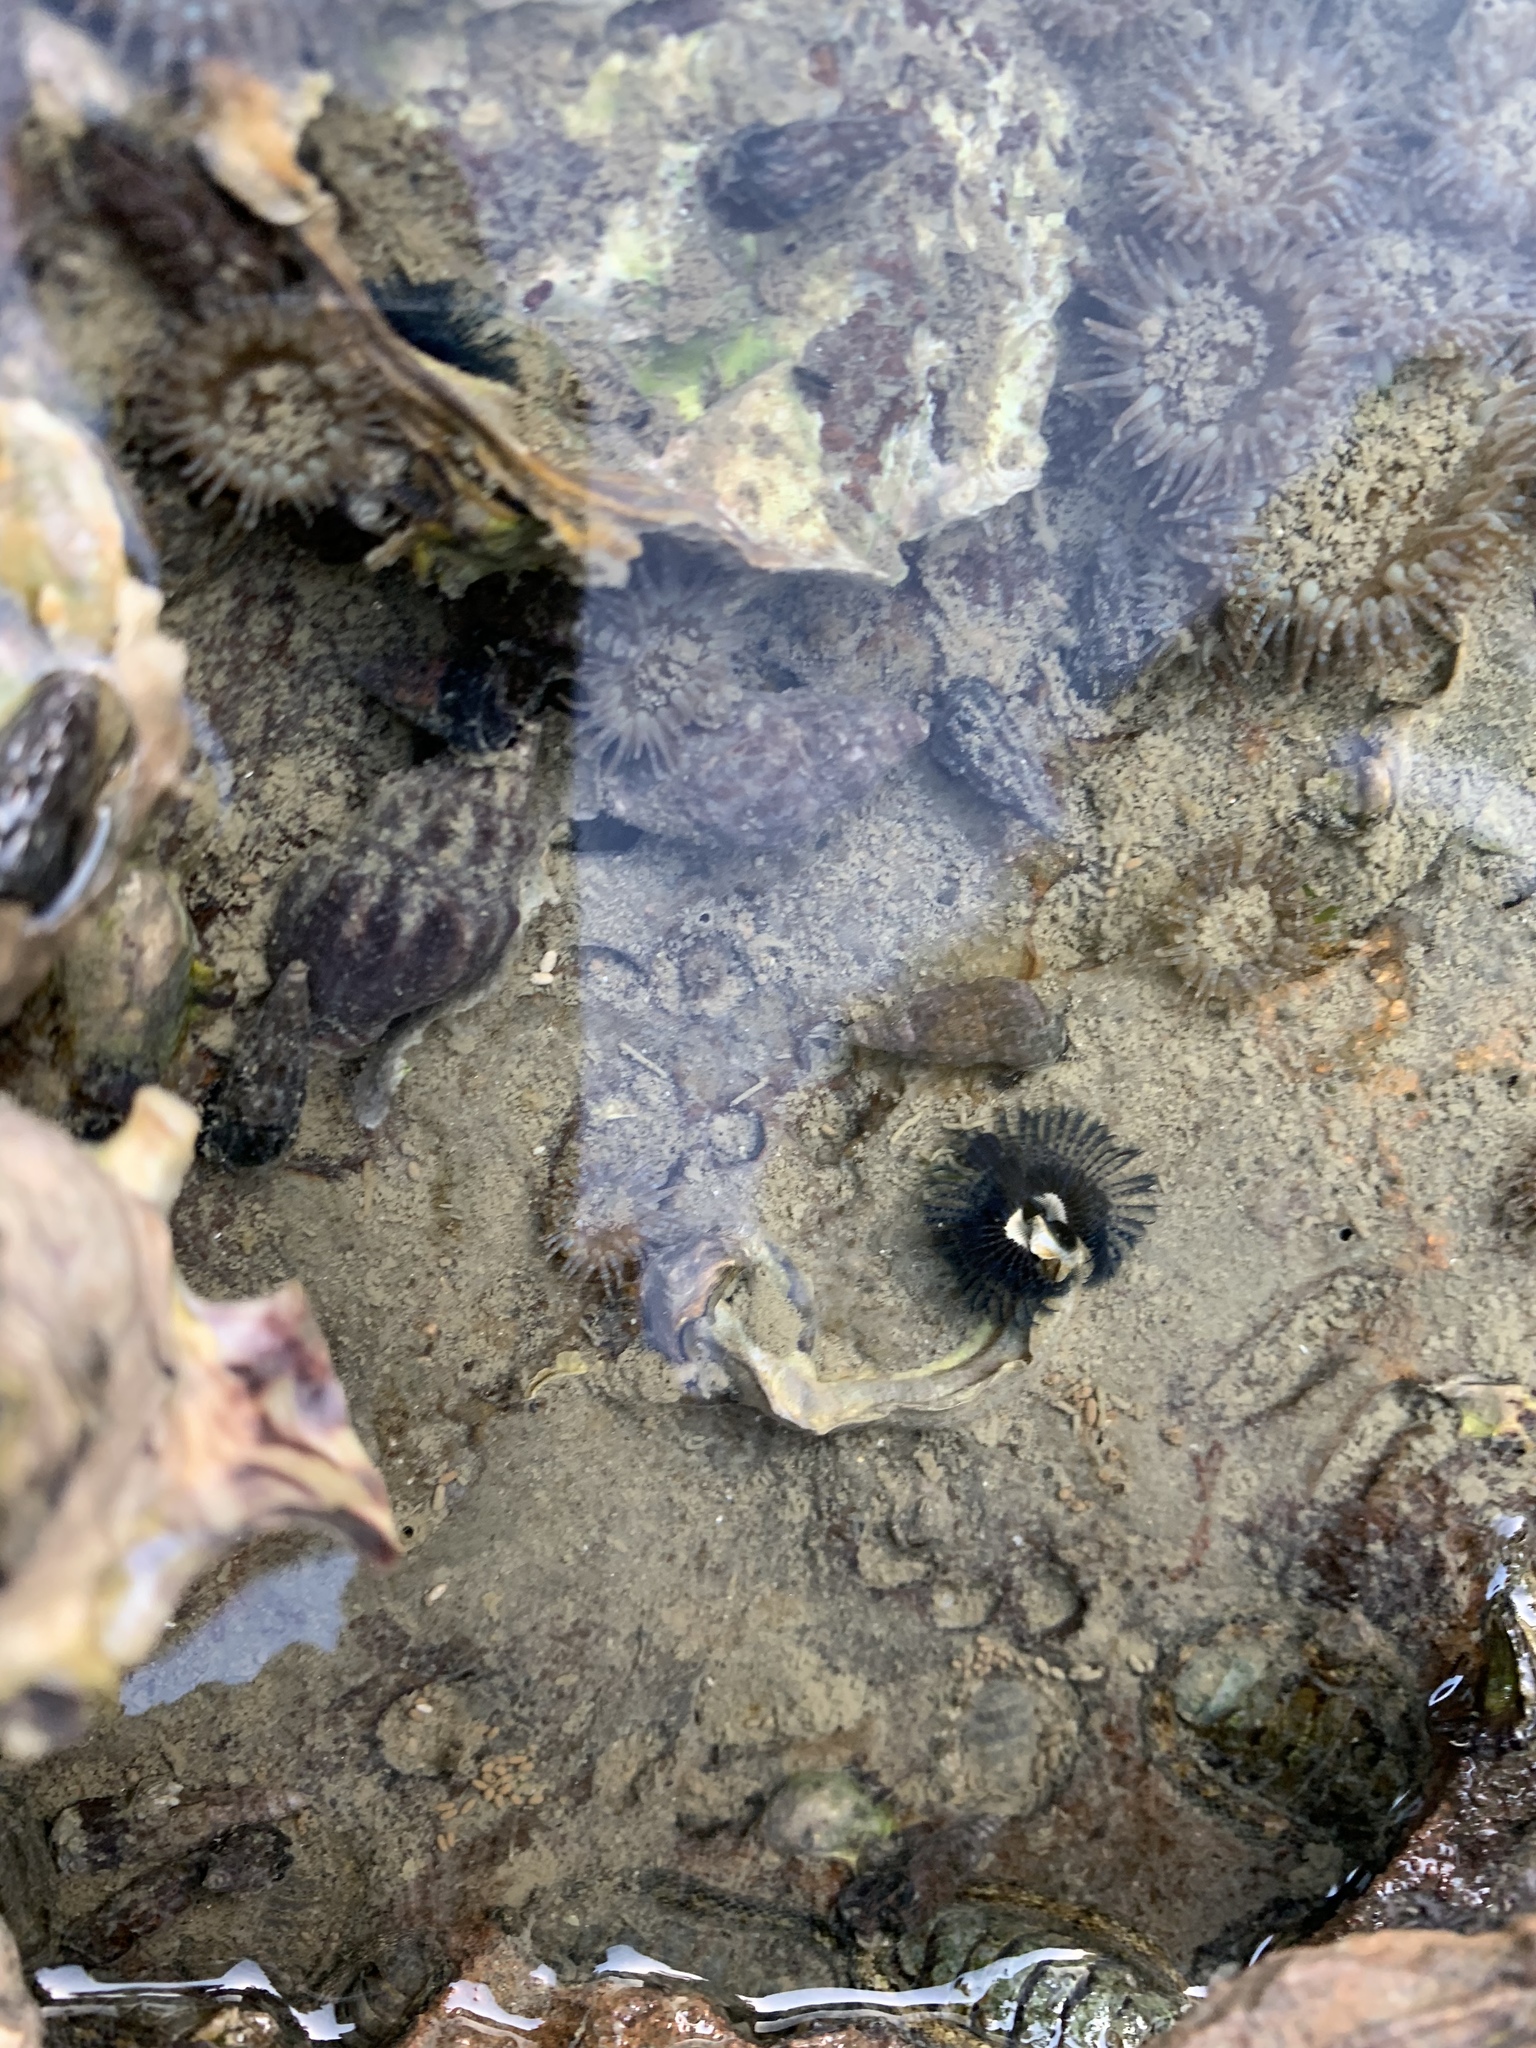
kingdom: Animalia
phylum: Annelida
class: Polychaeta
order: Sabellida
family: Serpulidae
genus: Spirobranchus
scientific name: Spirobranchus cariniferus
